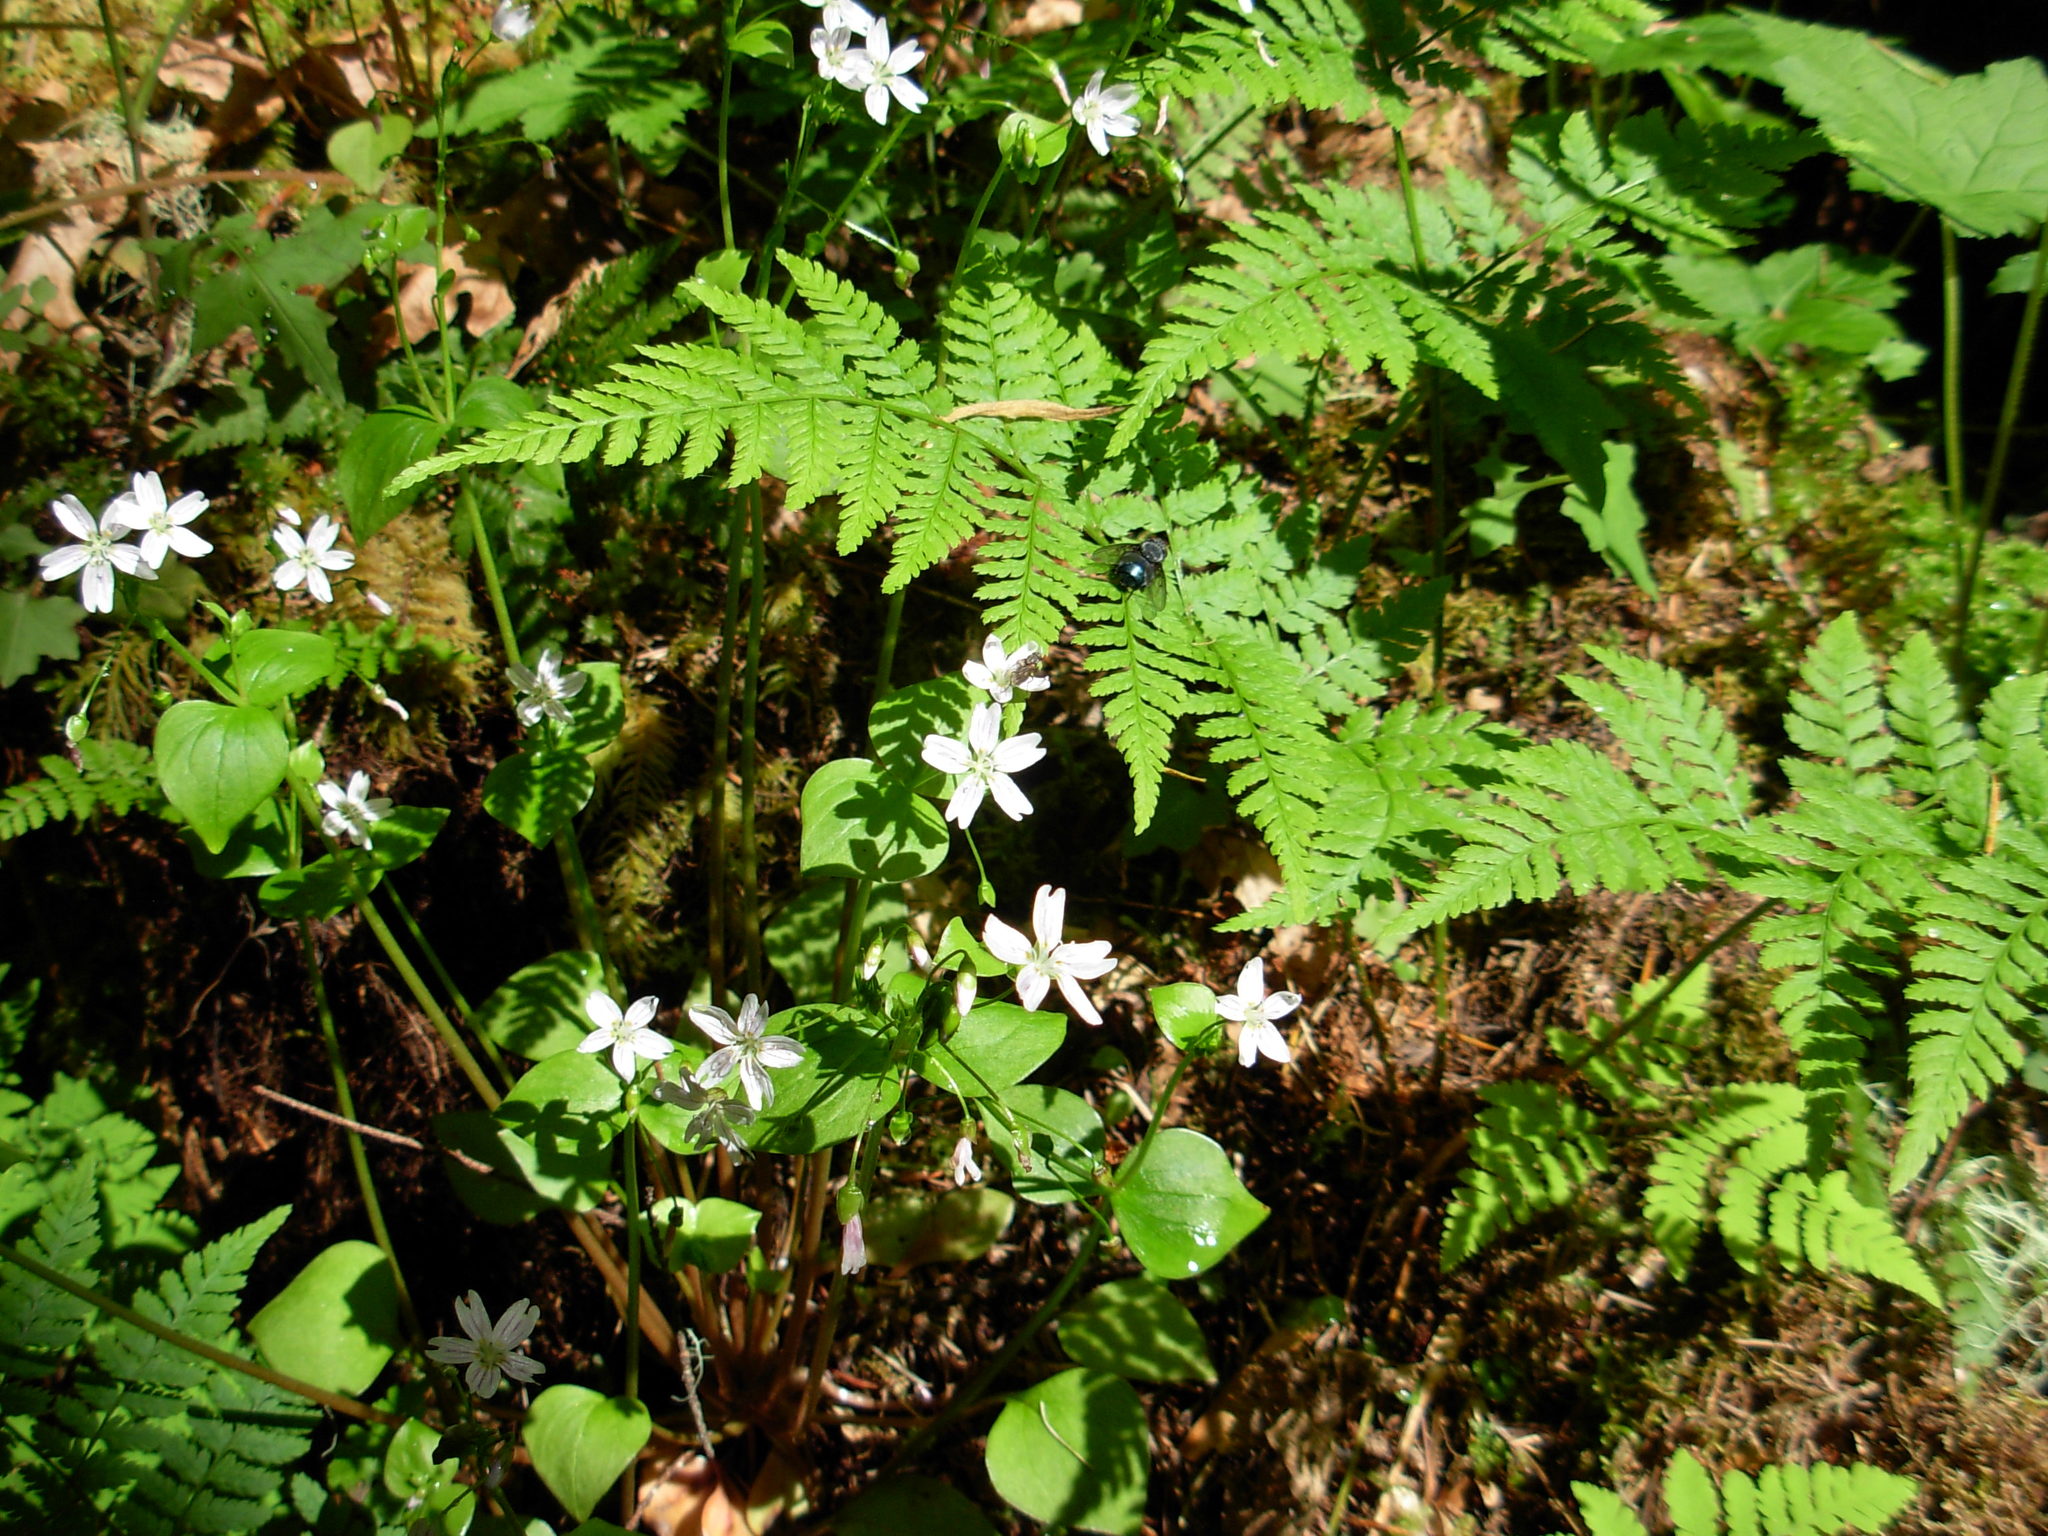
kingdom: Plantae
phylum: Tracheophyta
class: Polypodiopsida
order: Polypodiales
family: Dryopteridaceae
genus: Dryopteris
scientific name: Dryopteris expansa
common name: Northern buckler fern
